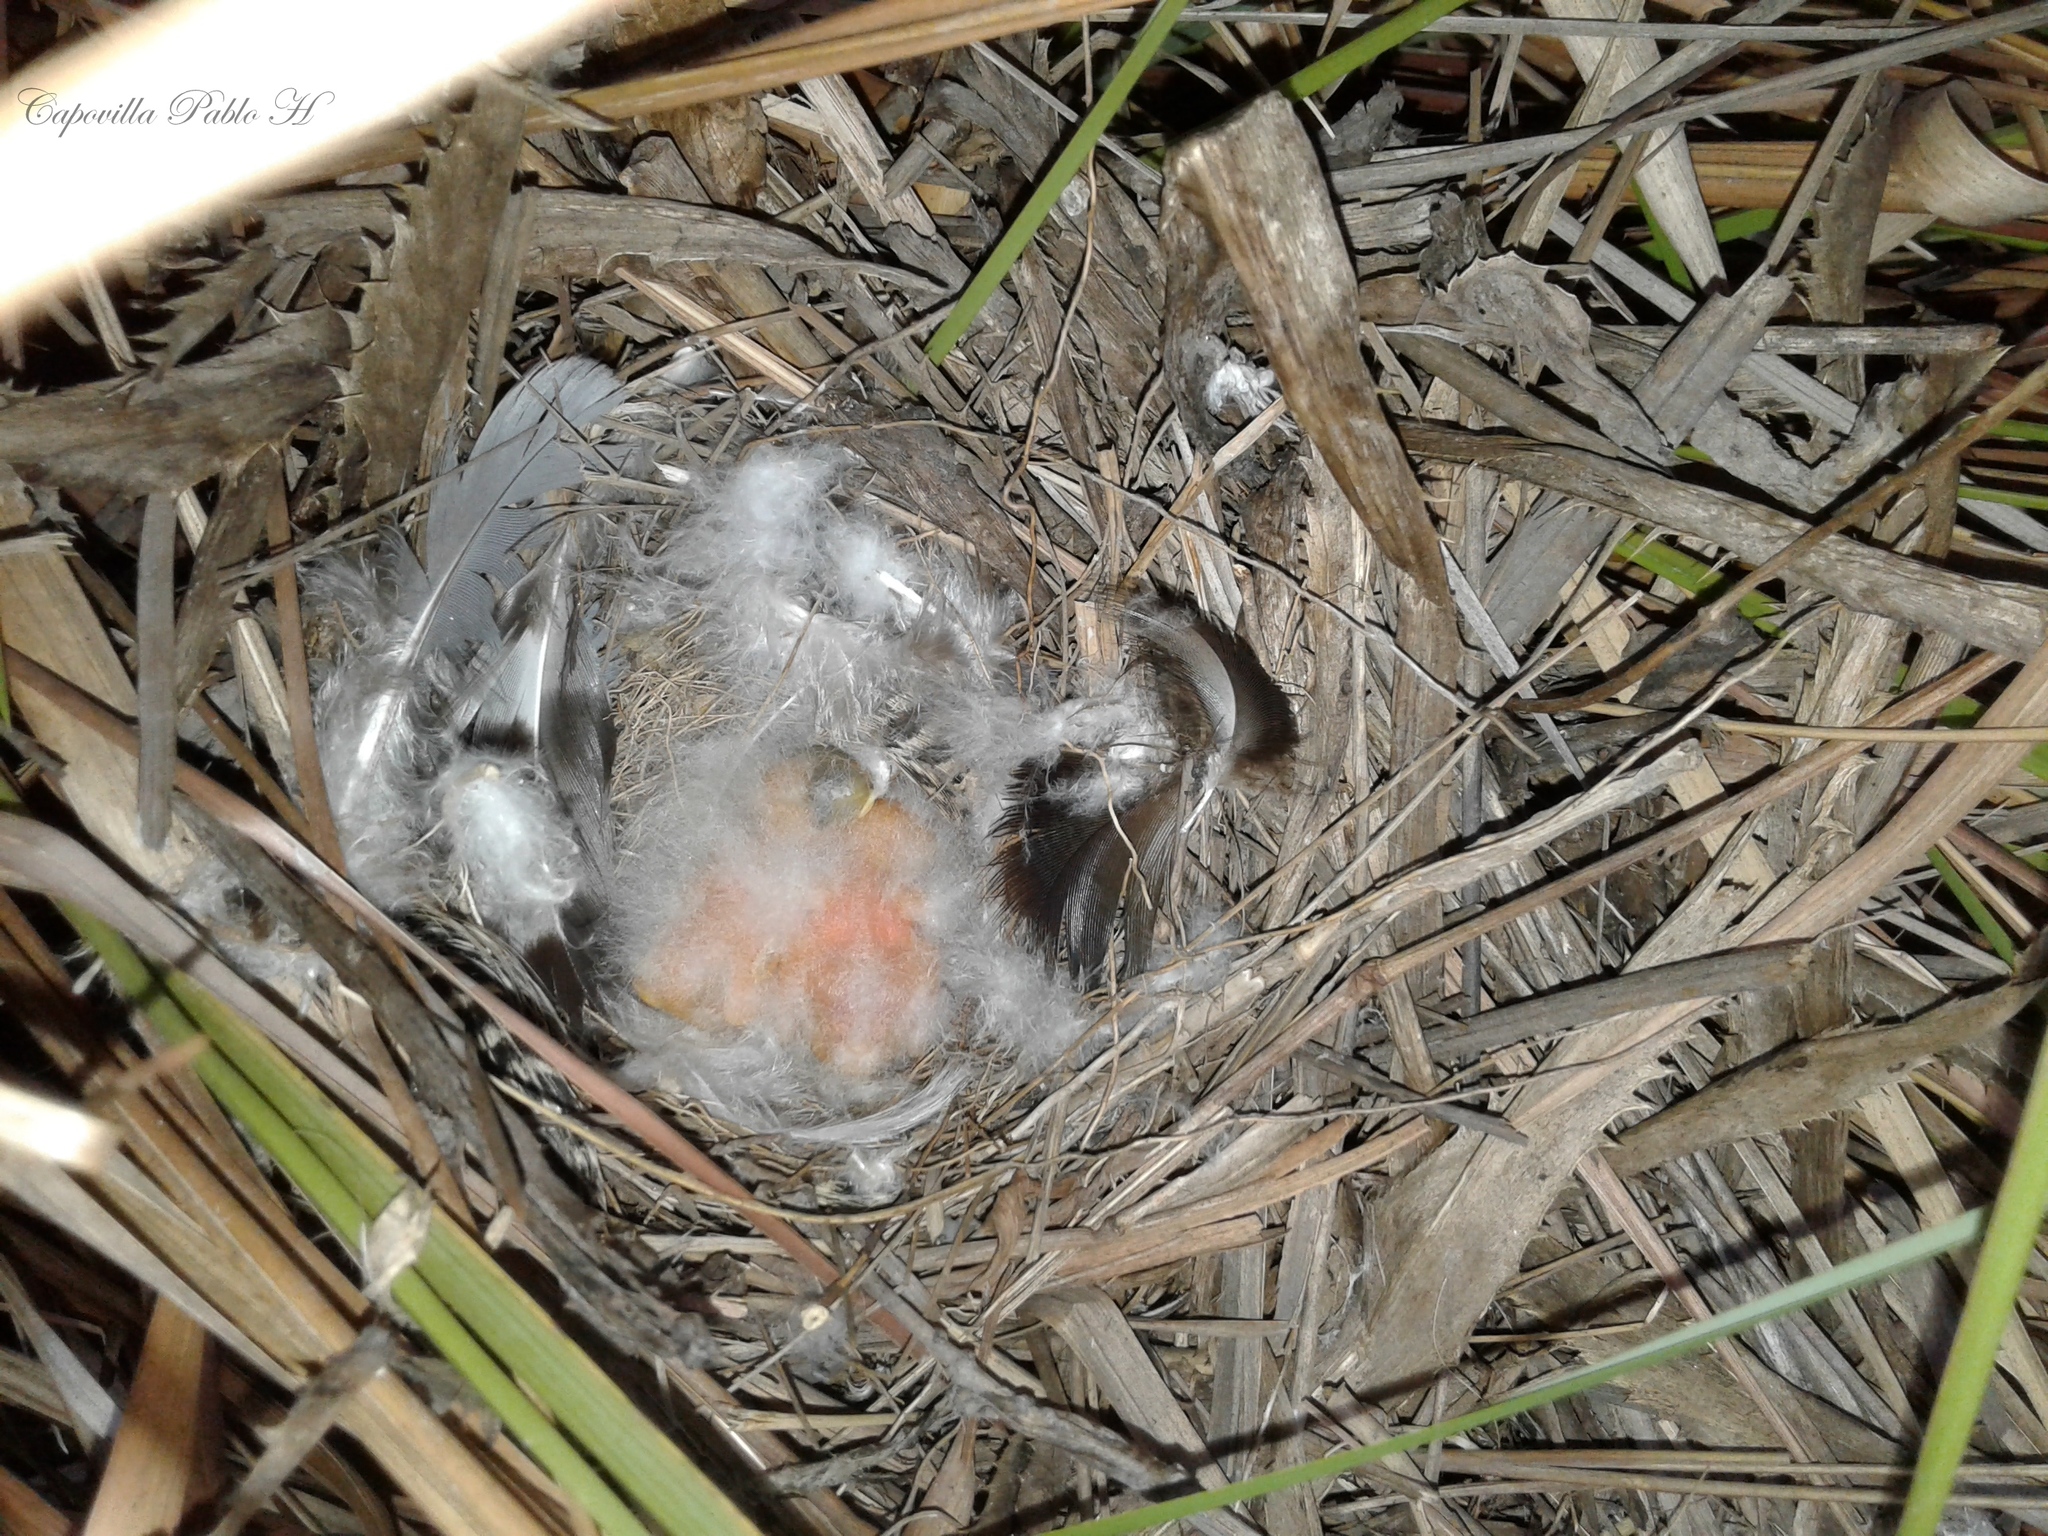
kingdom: Animalia
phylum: Chordata
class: Aves
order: Passeriformes
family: Tyrannidae
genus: Alectrurus
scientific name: Alectrurus risora
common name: Strange-tailed tyrant
